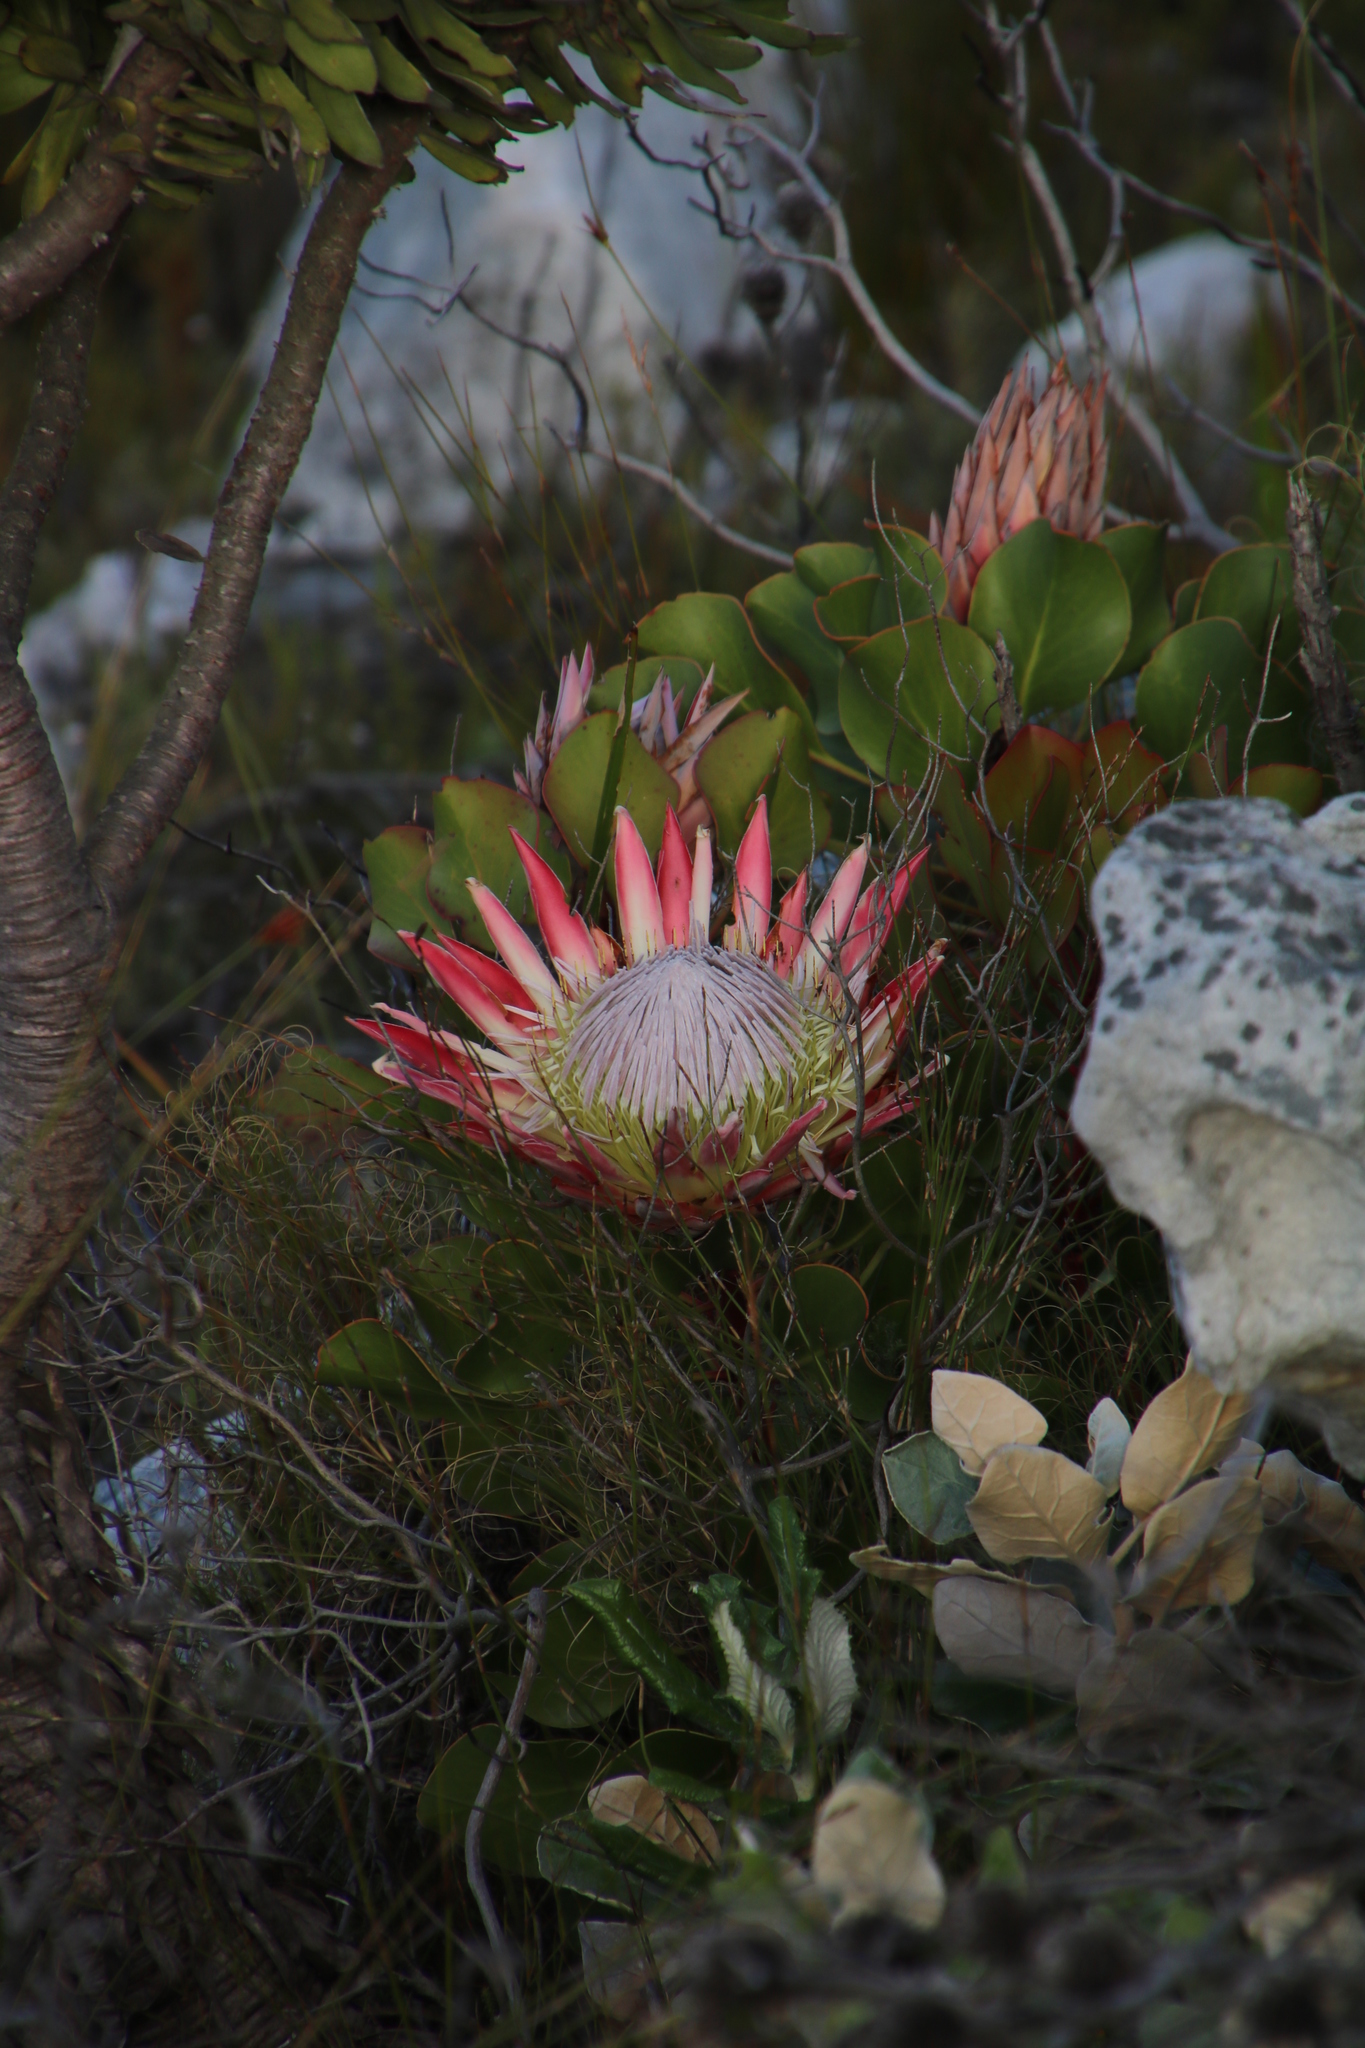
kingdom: Plantae
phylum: Tracheophyta
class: Magnoliopsida
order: Proteales
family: Proteaceae
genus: Protea
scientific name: Protea cynaroides
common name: King protea
